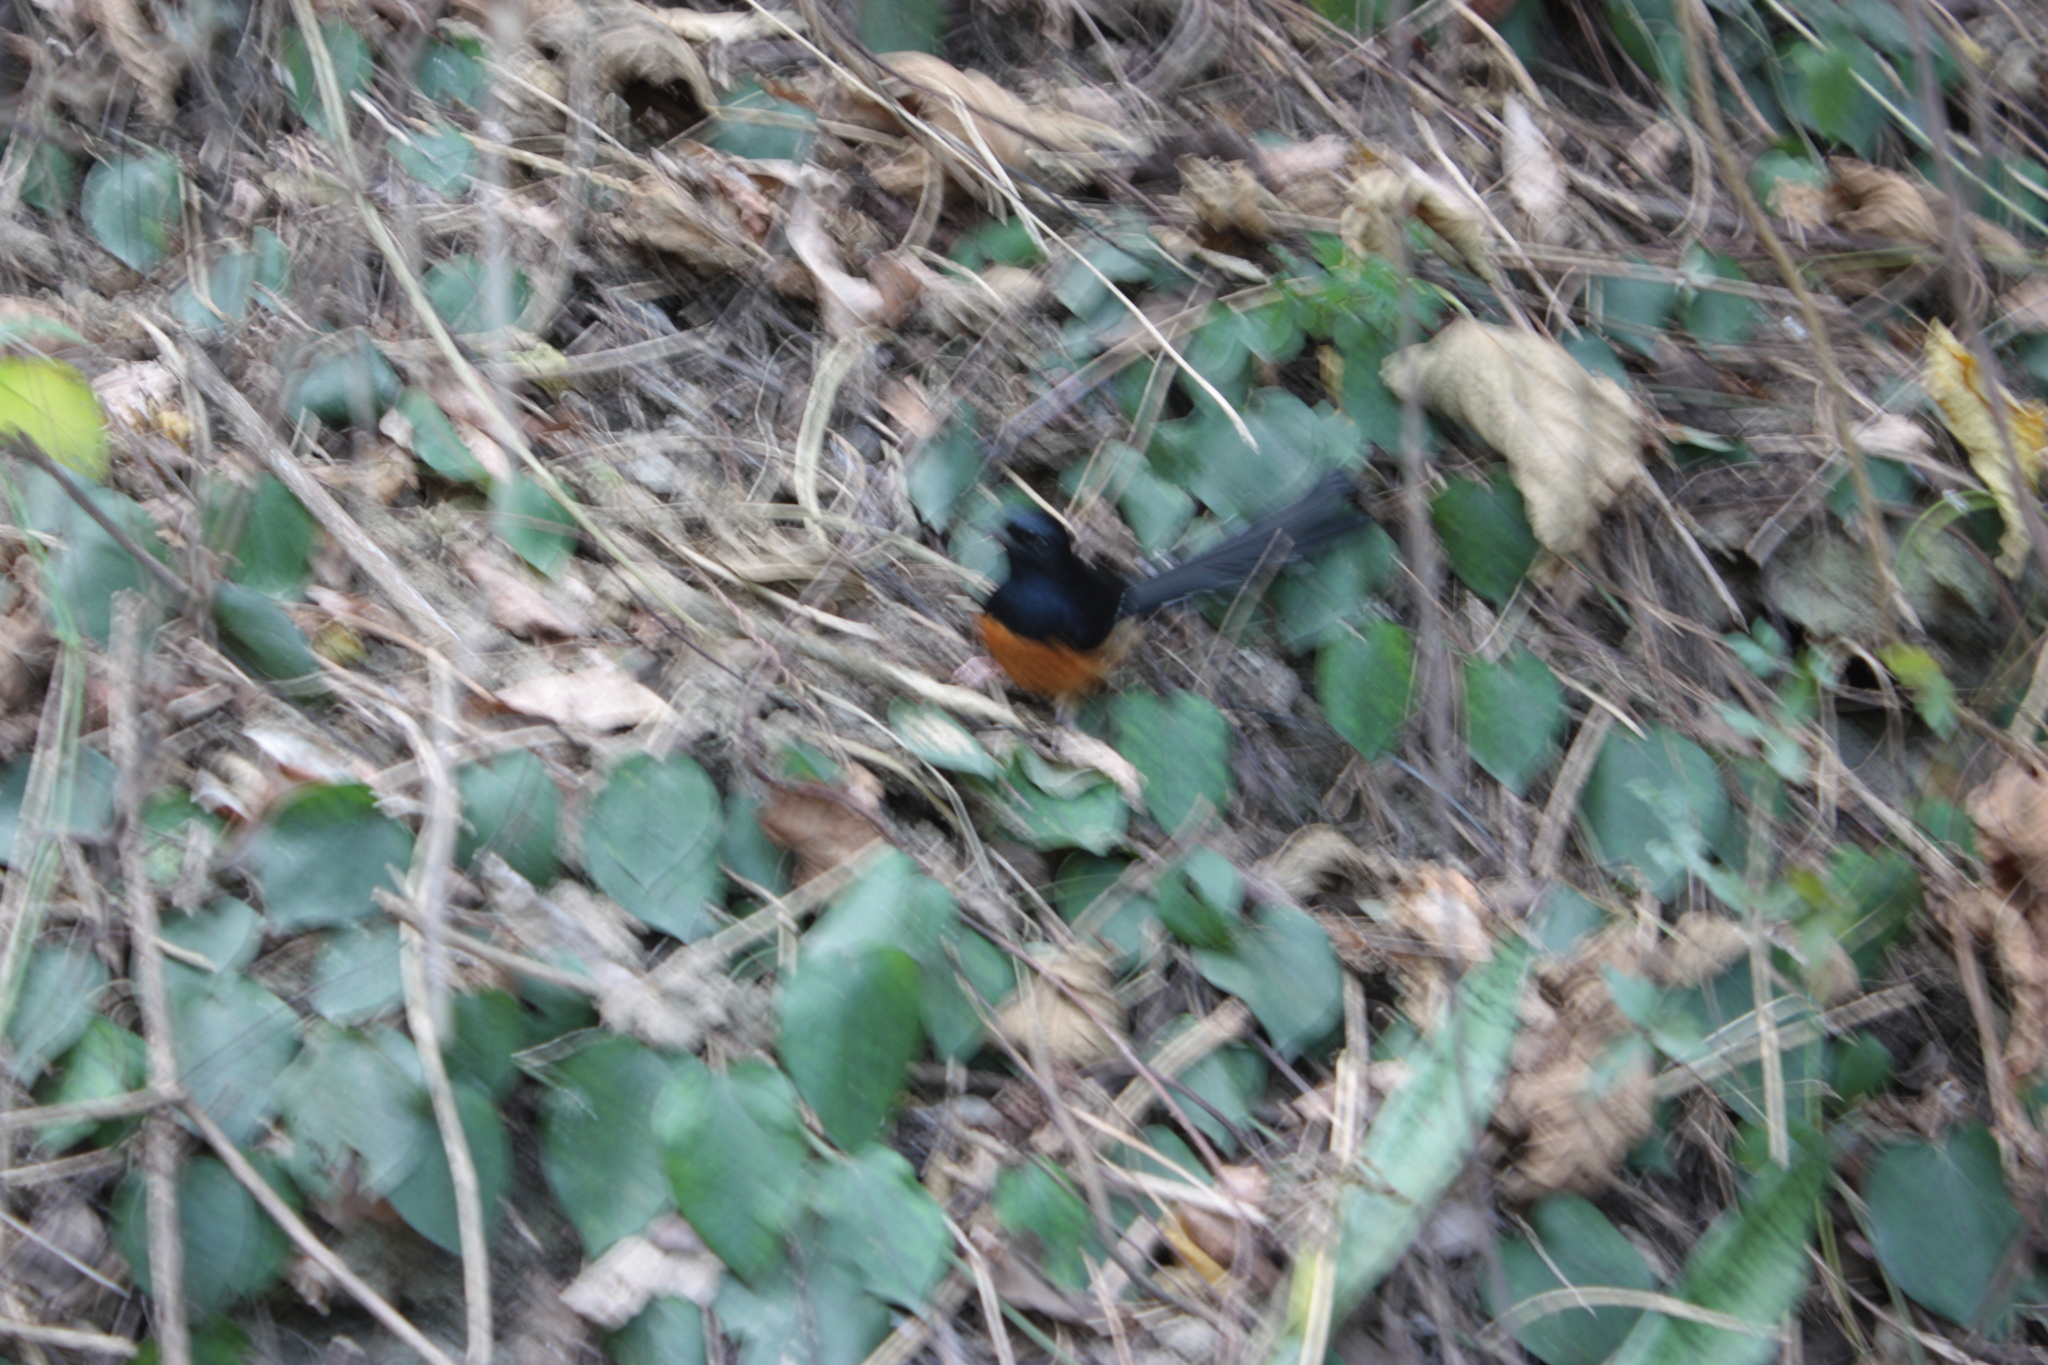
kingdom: Animalia
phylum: Chordata
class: Aves
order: Passeriformes
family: Muscicapidae
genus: Copsychus
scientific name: Copsychus malabaricus
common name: White-rumped shama
